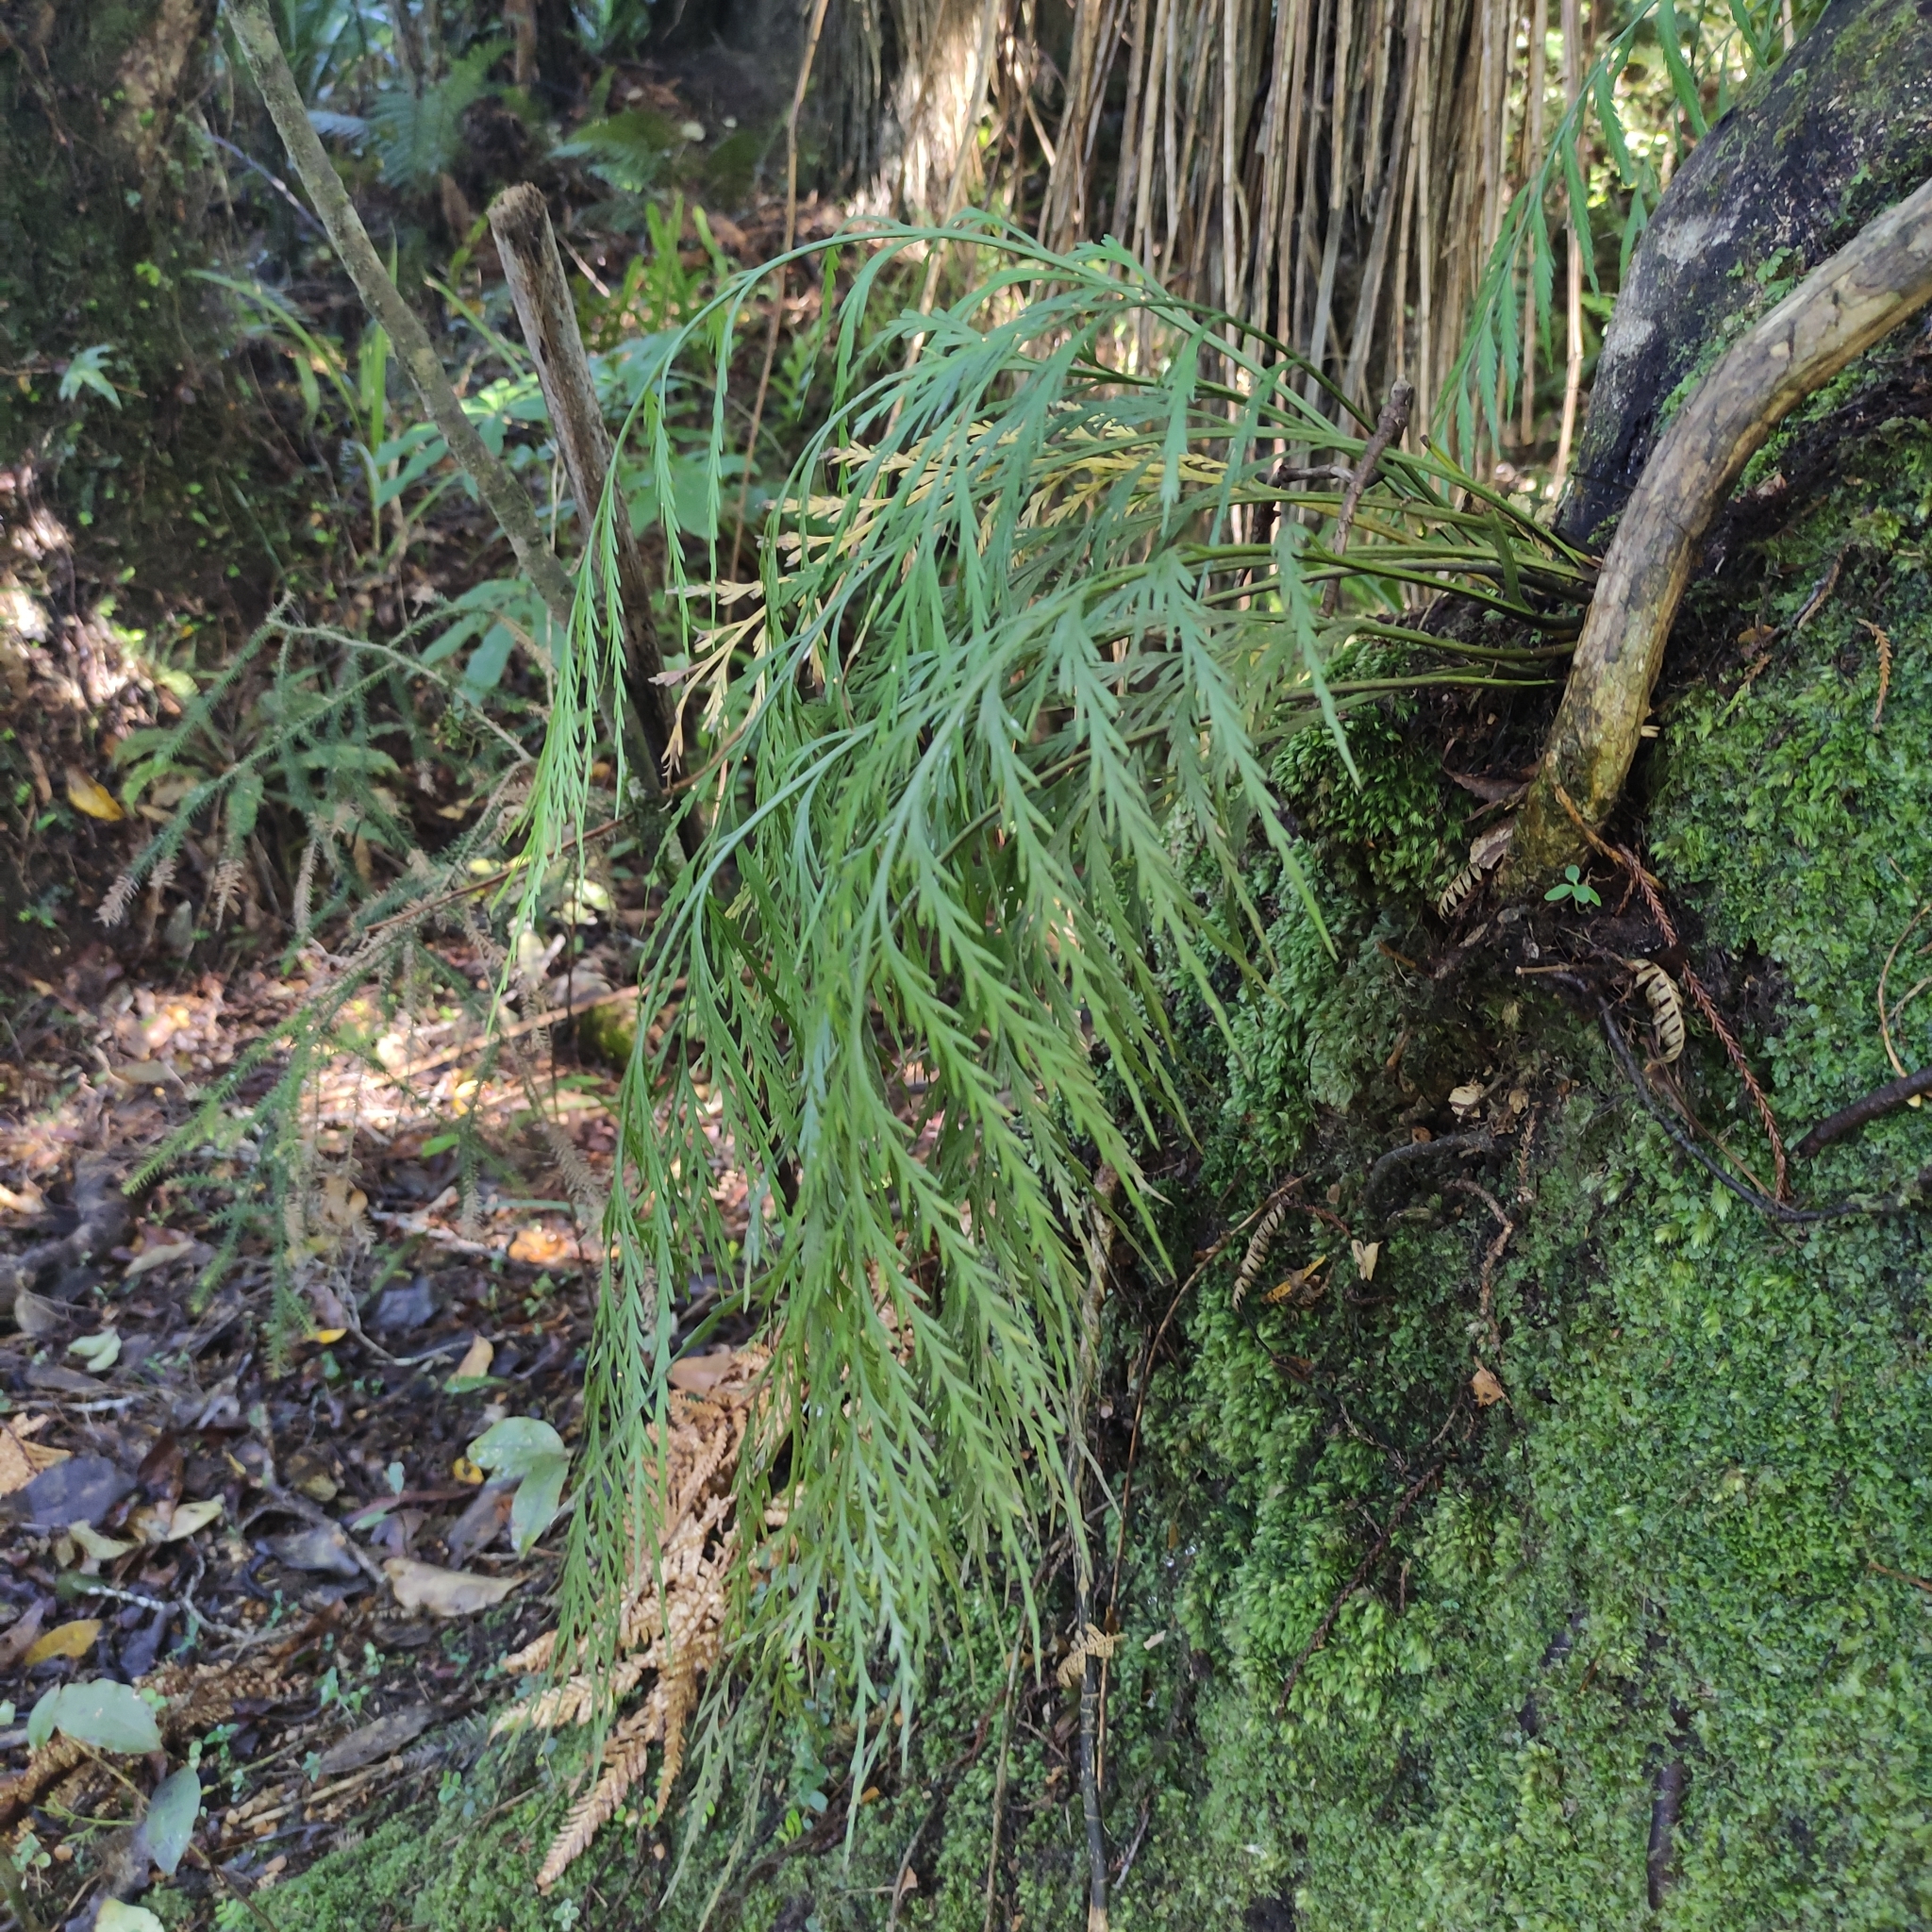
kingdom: Plantae
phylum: Tracheophyta
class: Polypodiopsida
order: Polypodiales
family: Aspleniaceae
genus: Asplenium
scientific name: Asplenium flaccidum
